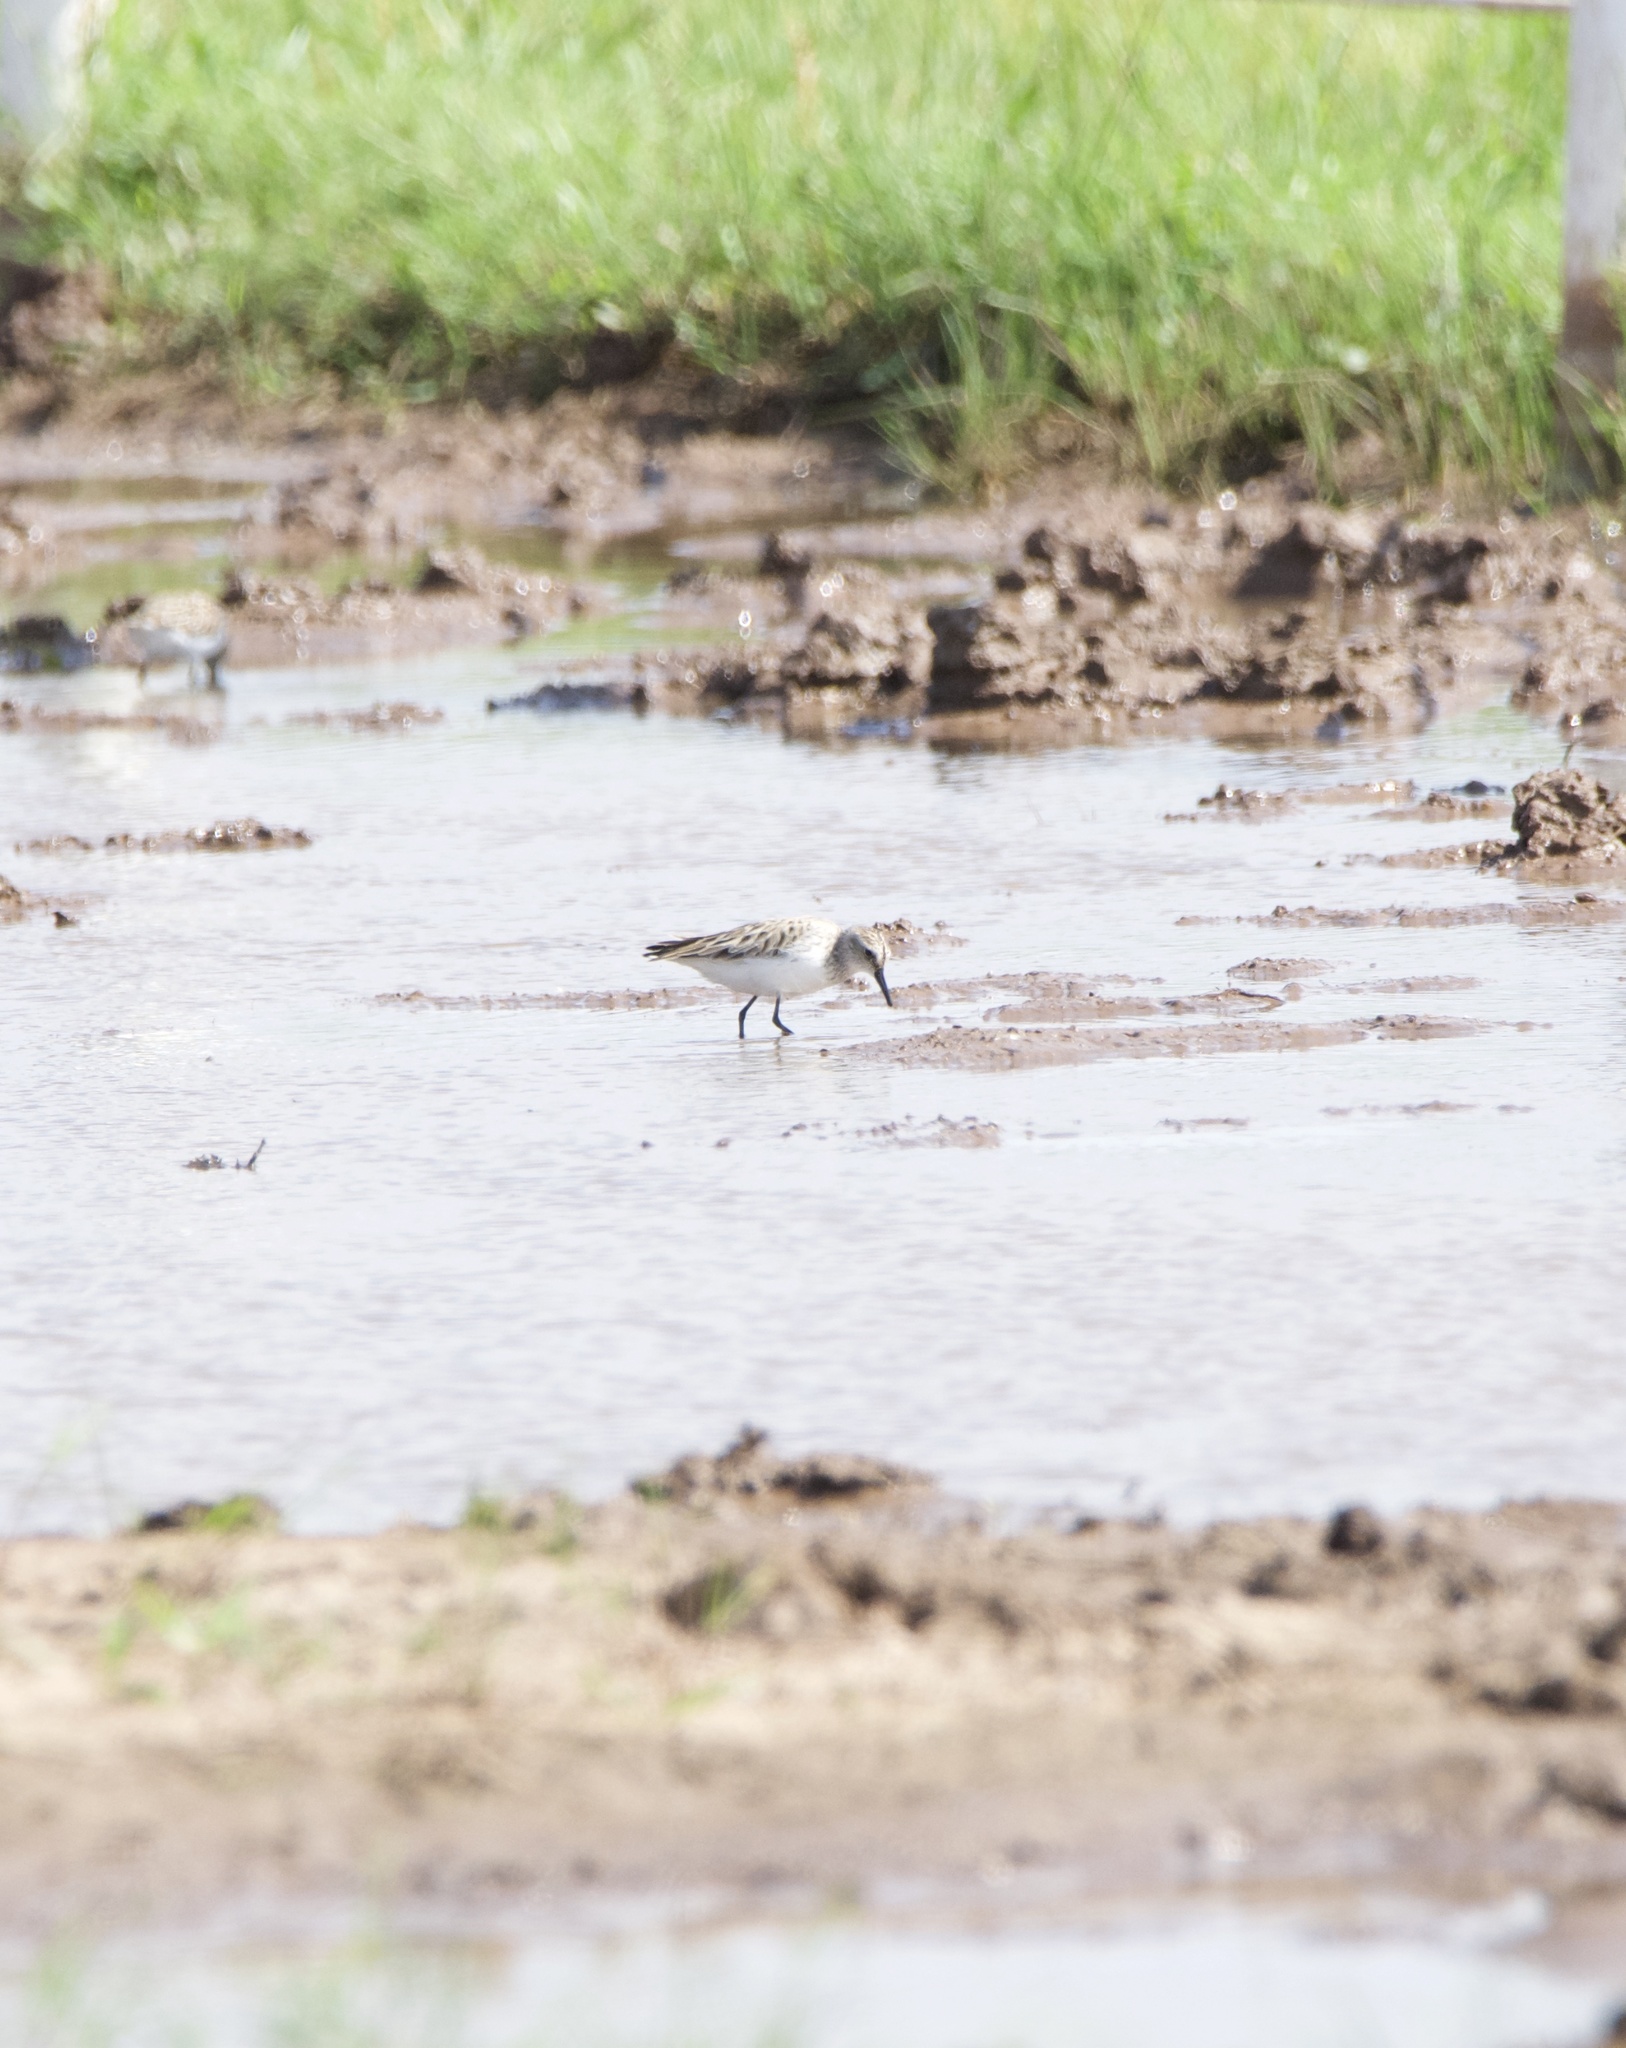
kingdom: Animalia
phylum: Chordata
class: Aves
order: Charadriiformes
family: Scolopacidae
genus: Calidris
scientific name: Calidris pusilla
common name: Semipalmated sandpiper
